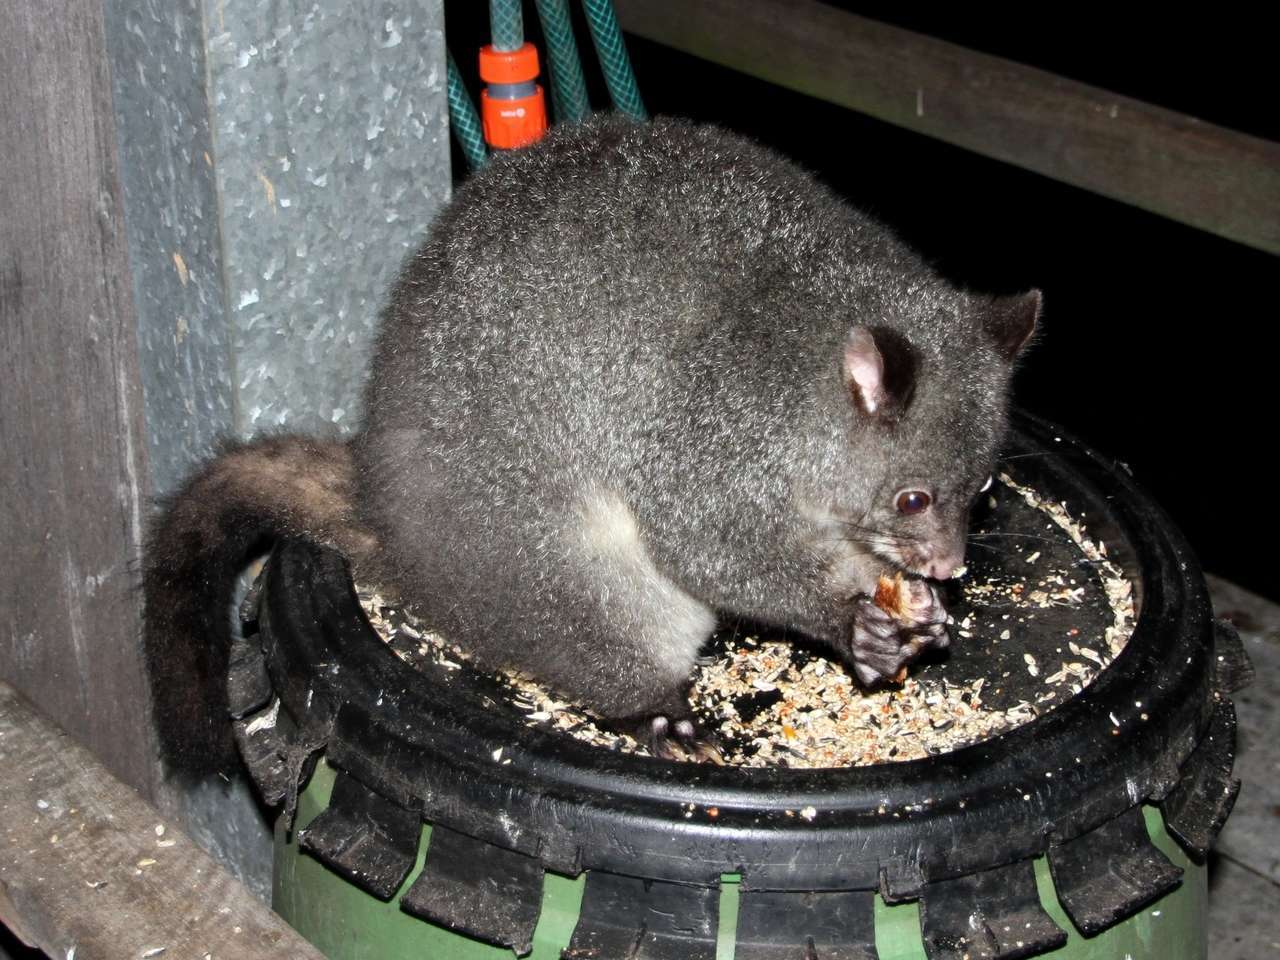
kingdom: Animalia
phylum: Chordata
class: Mammalia
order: Diprotodontia
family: Phalangeridae
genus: Trichosurus
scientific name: Trichosurus cunninghami
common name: Mountain brushtail possum
